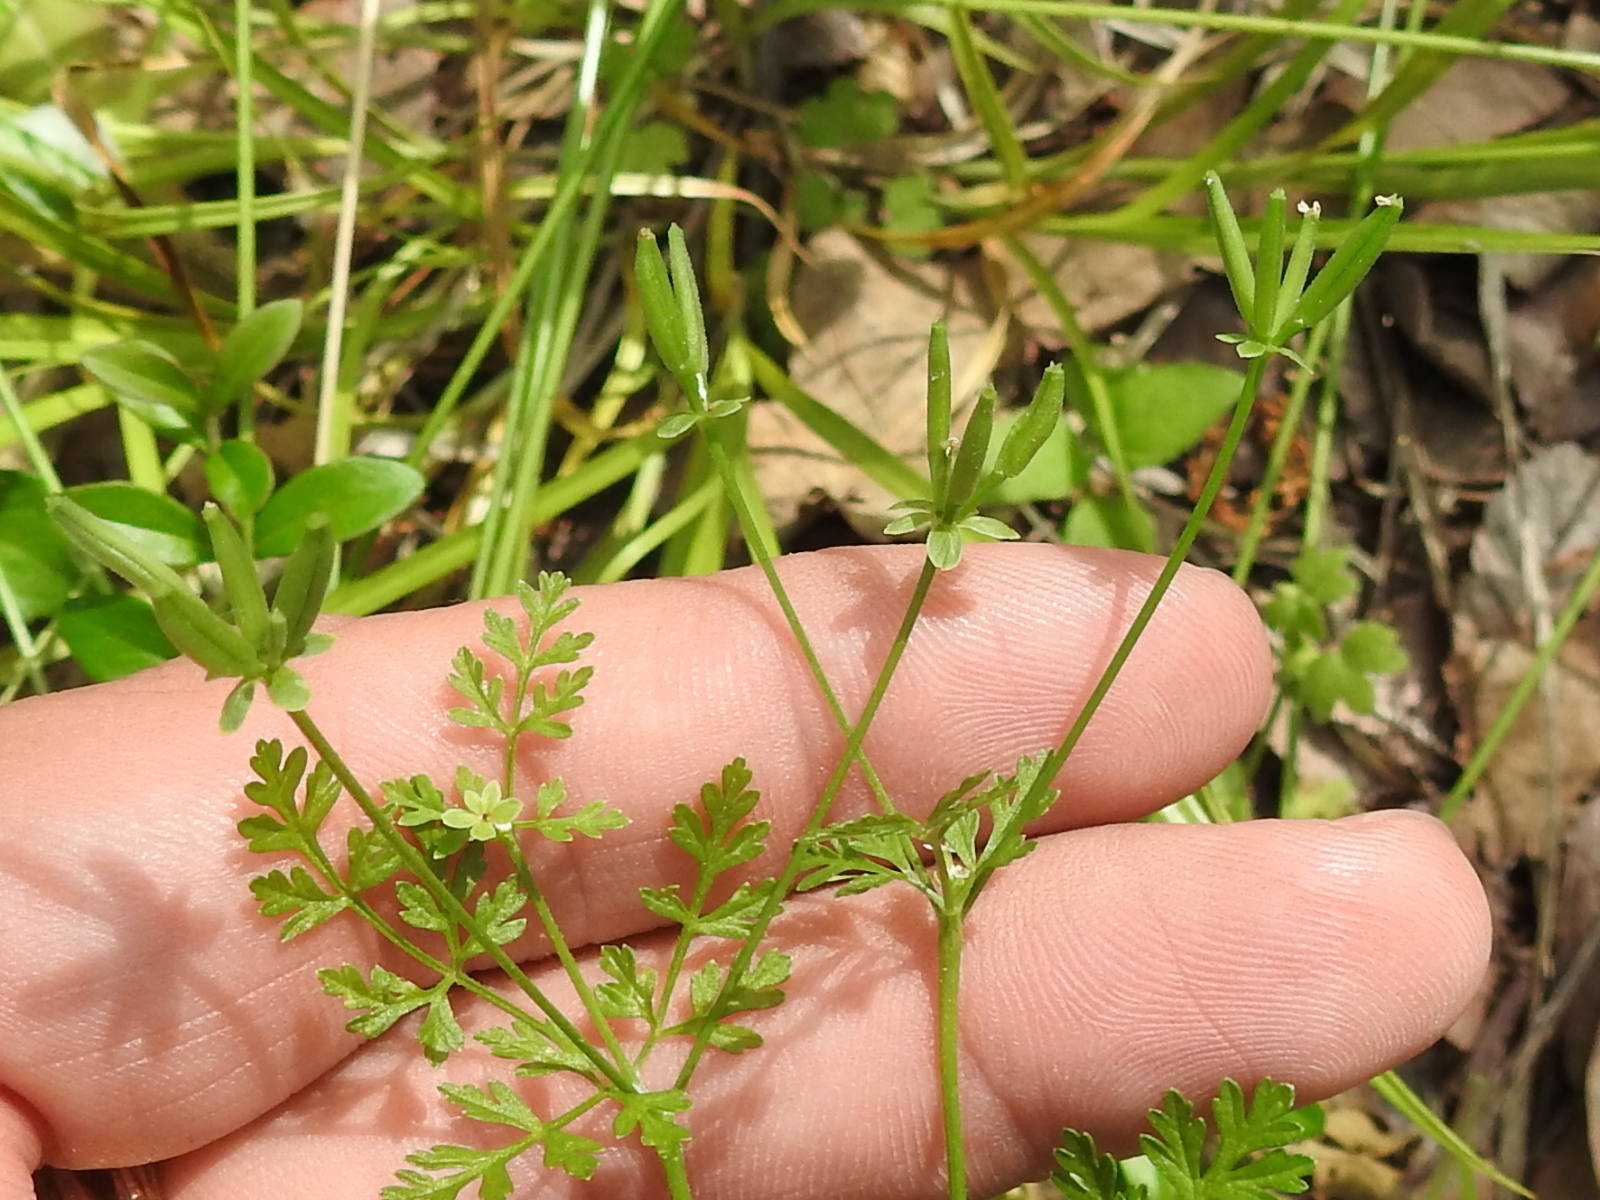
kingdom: Plantae
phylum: Tracheophyta
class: Magnoliopsida
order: Apiales
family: Apiaceae
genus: Chaerophyllum
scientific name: Chaerophyllum tainturieri
